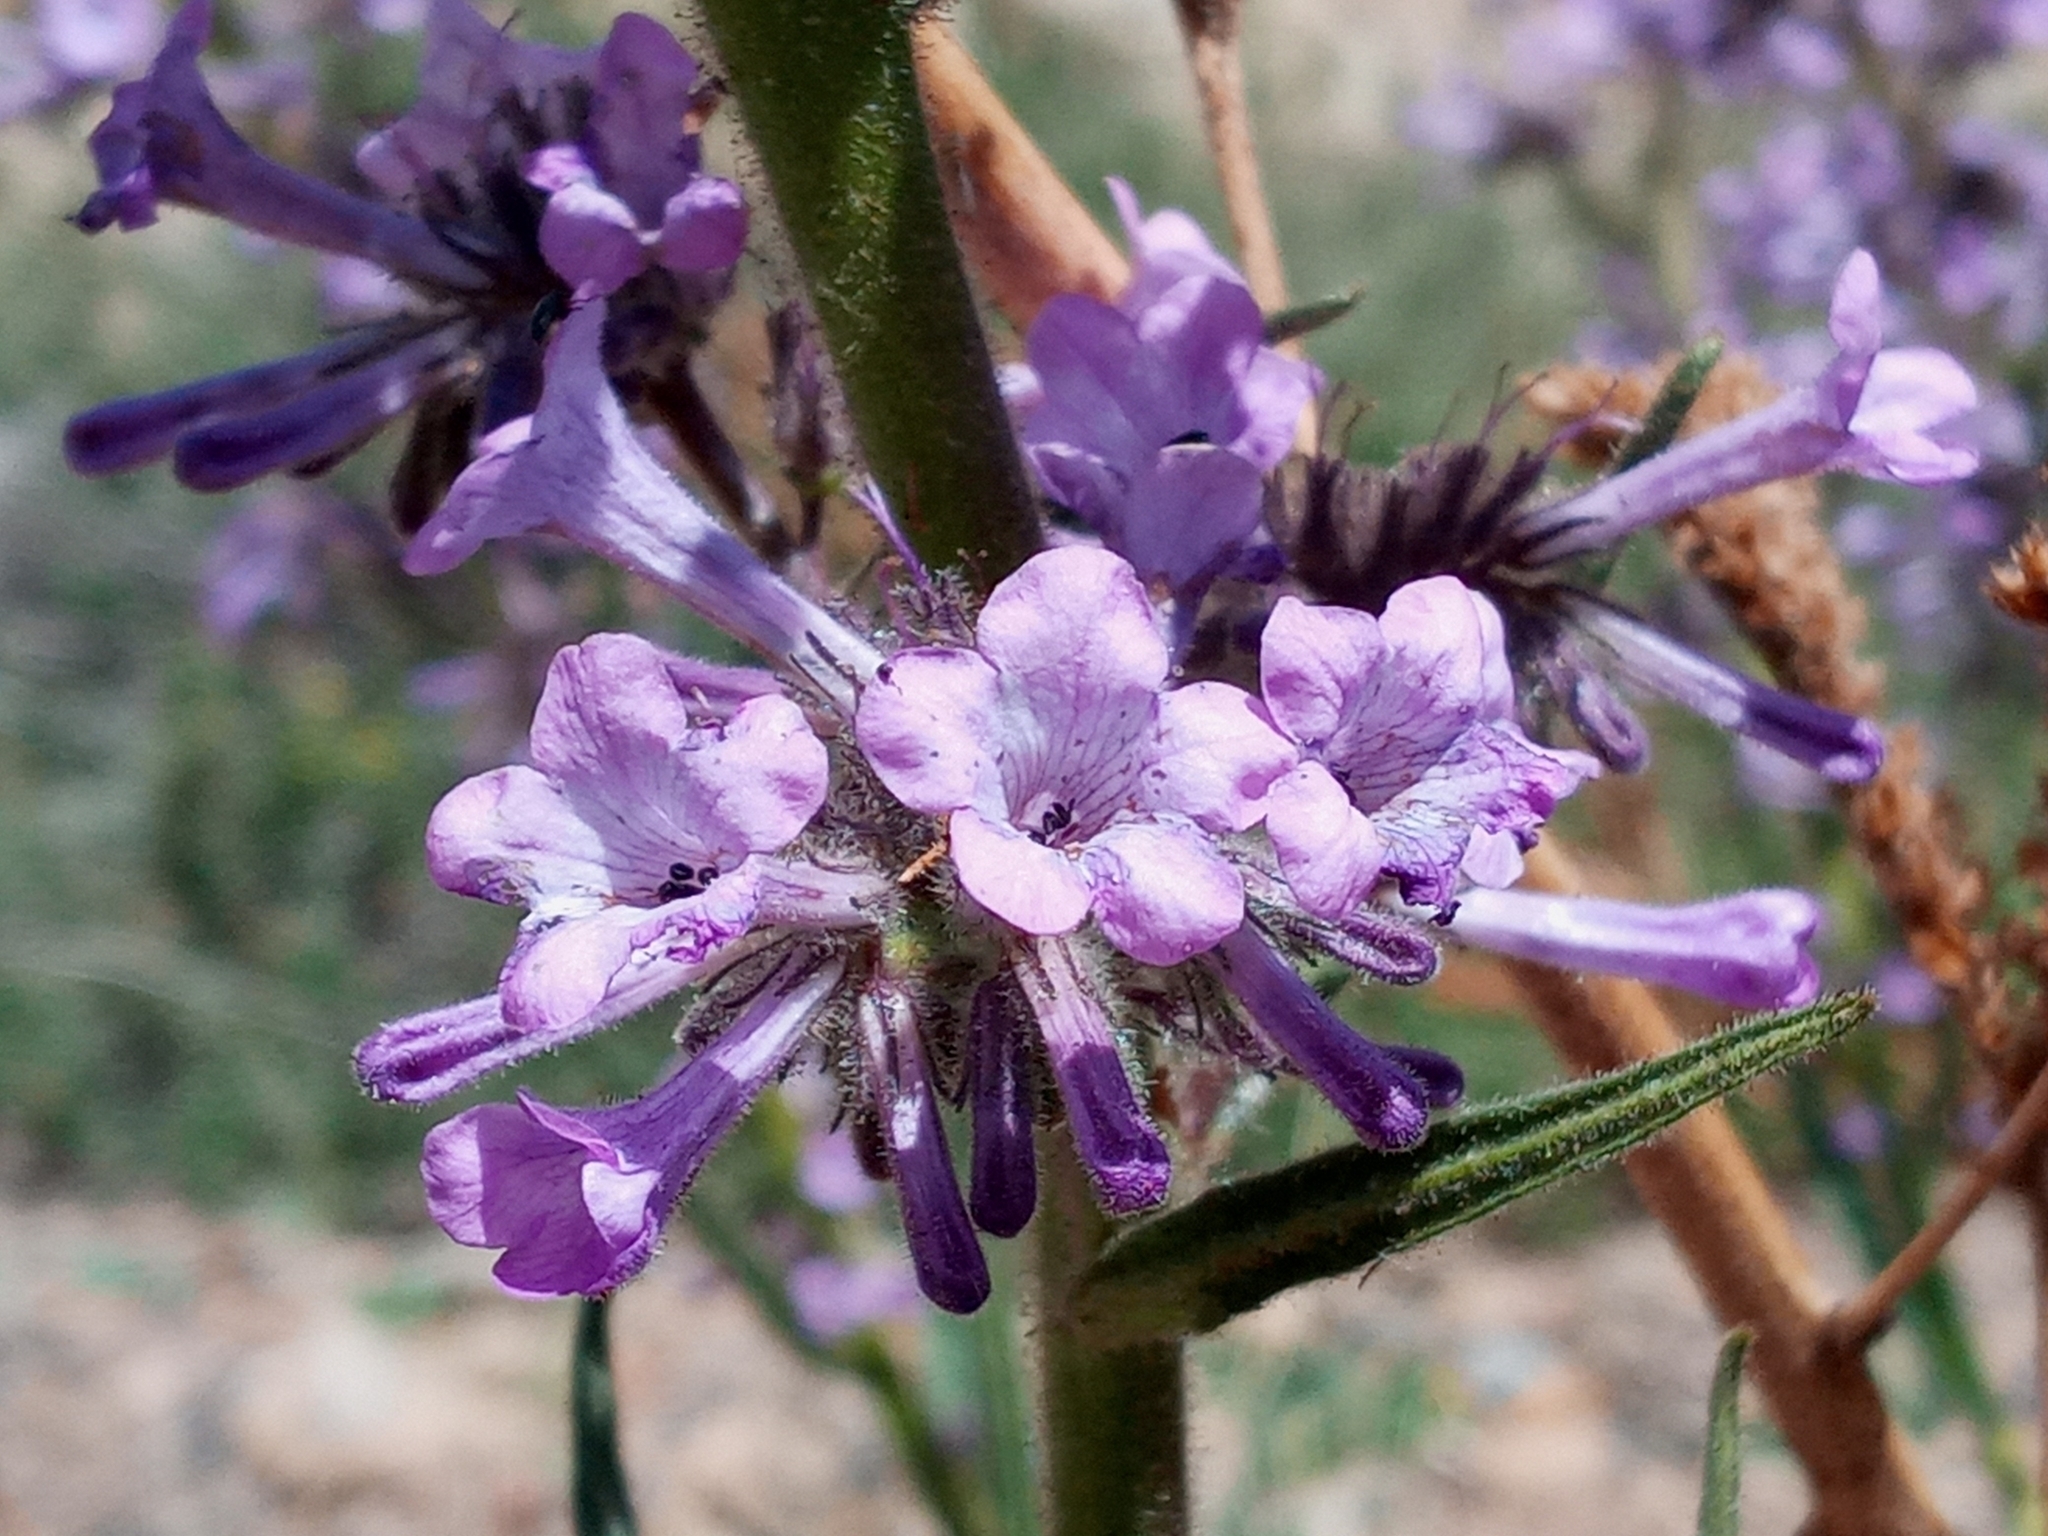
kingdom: Plantae
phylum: Tracheophyta
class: Magnoliopsida
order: Boraginales
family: Namaceae
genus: Turricula
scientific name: Turricula parryi
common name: Poodle-dog-bush
